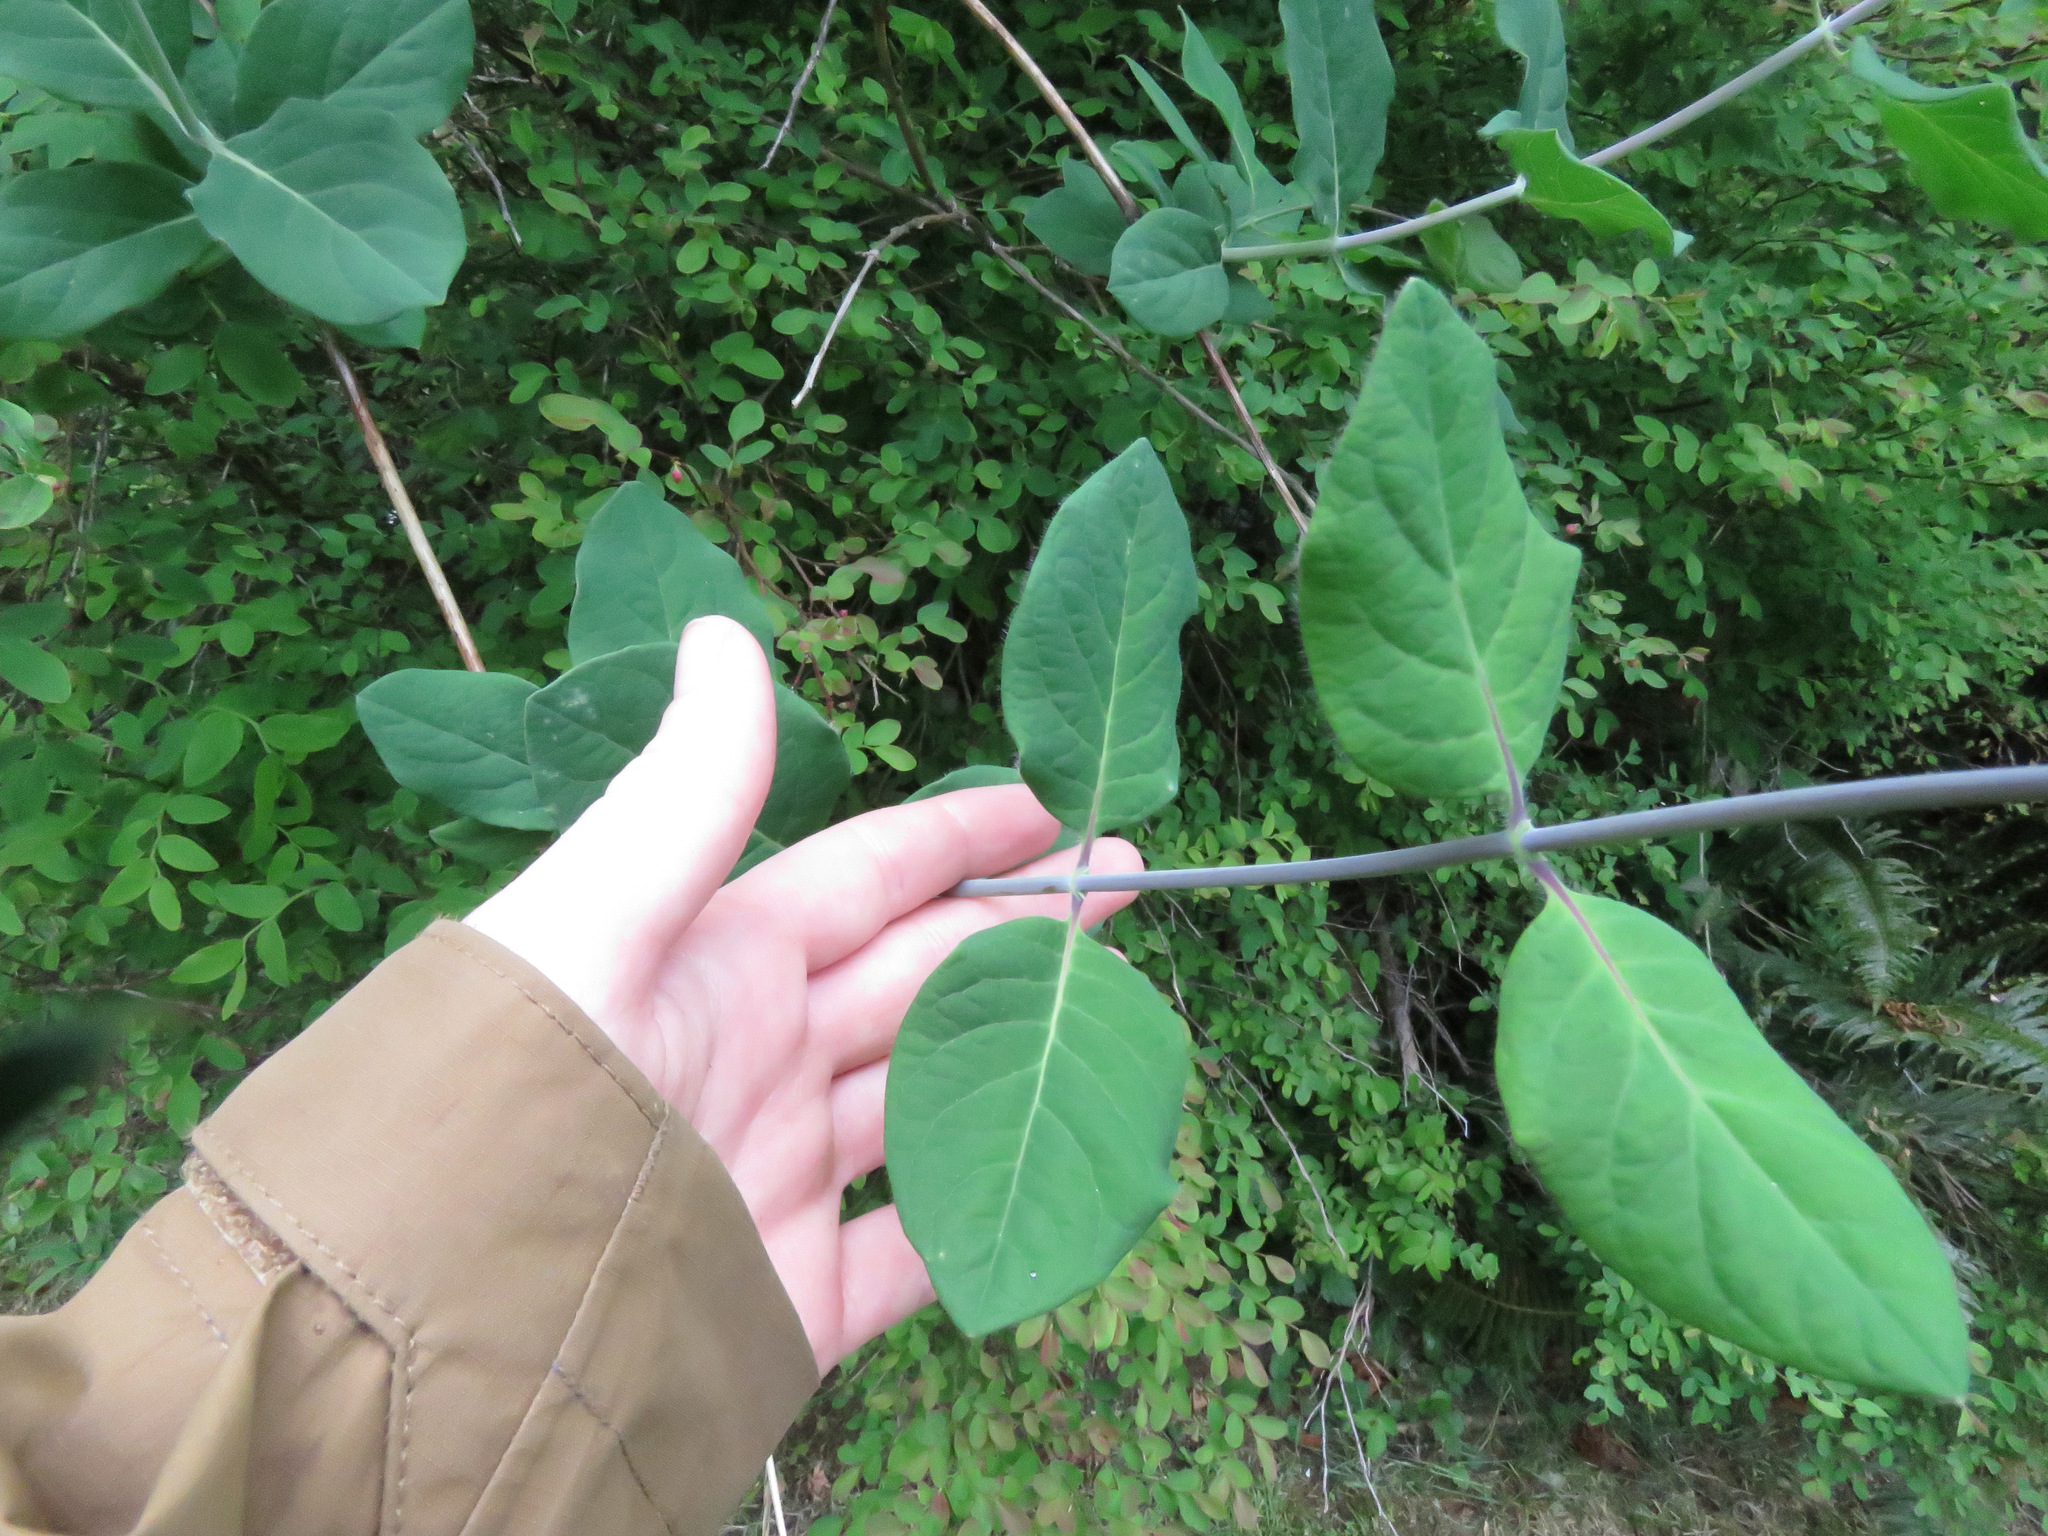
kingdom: Plantae
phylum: Tracheophyta
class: Magnoliopsida
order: Dipsacales
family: Caprifoliaceae
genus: Lonicera
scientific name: Lonicera ciliosa
